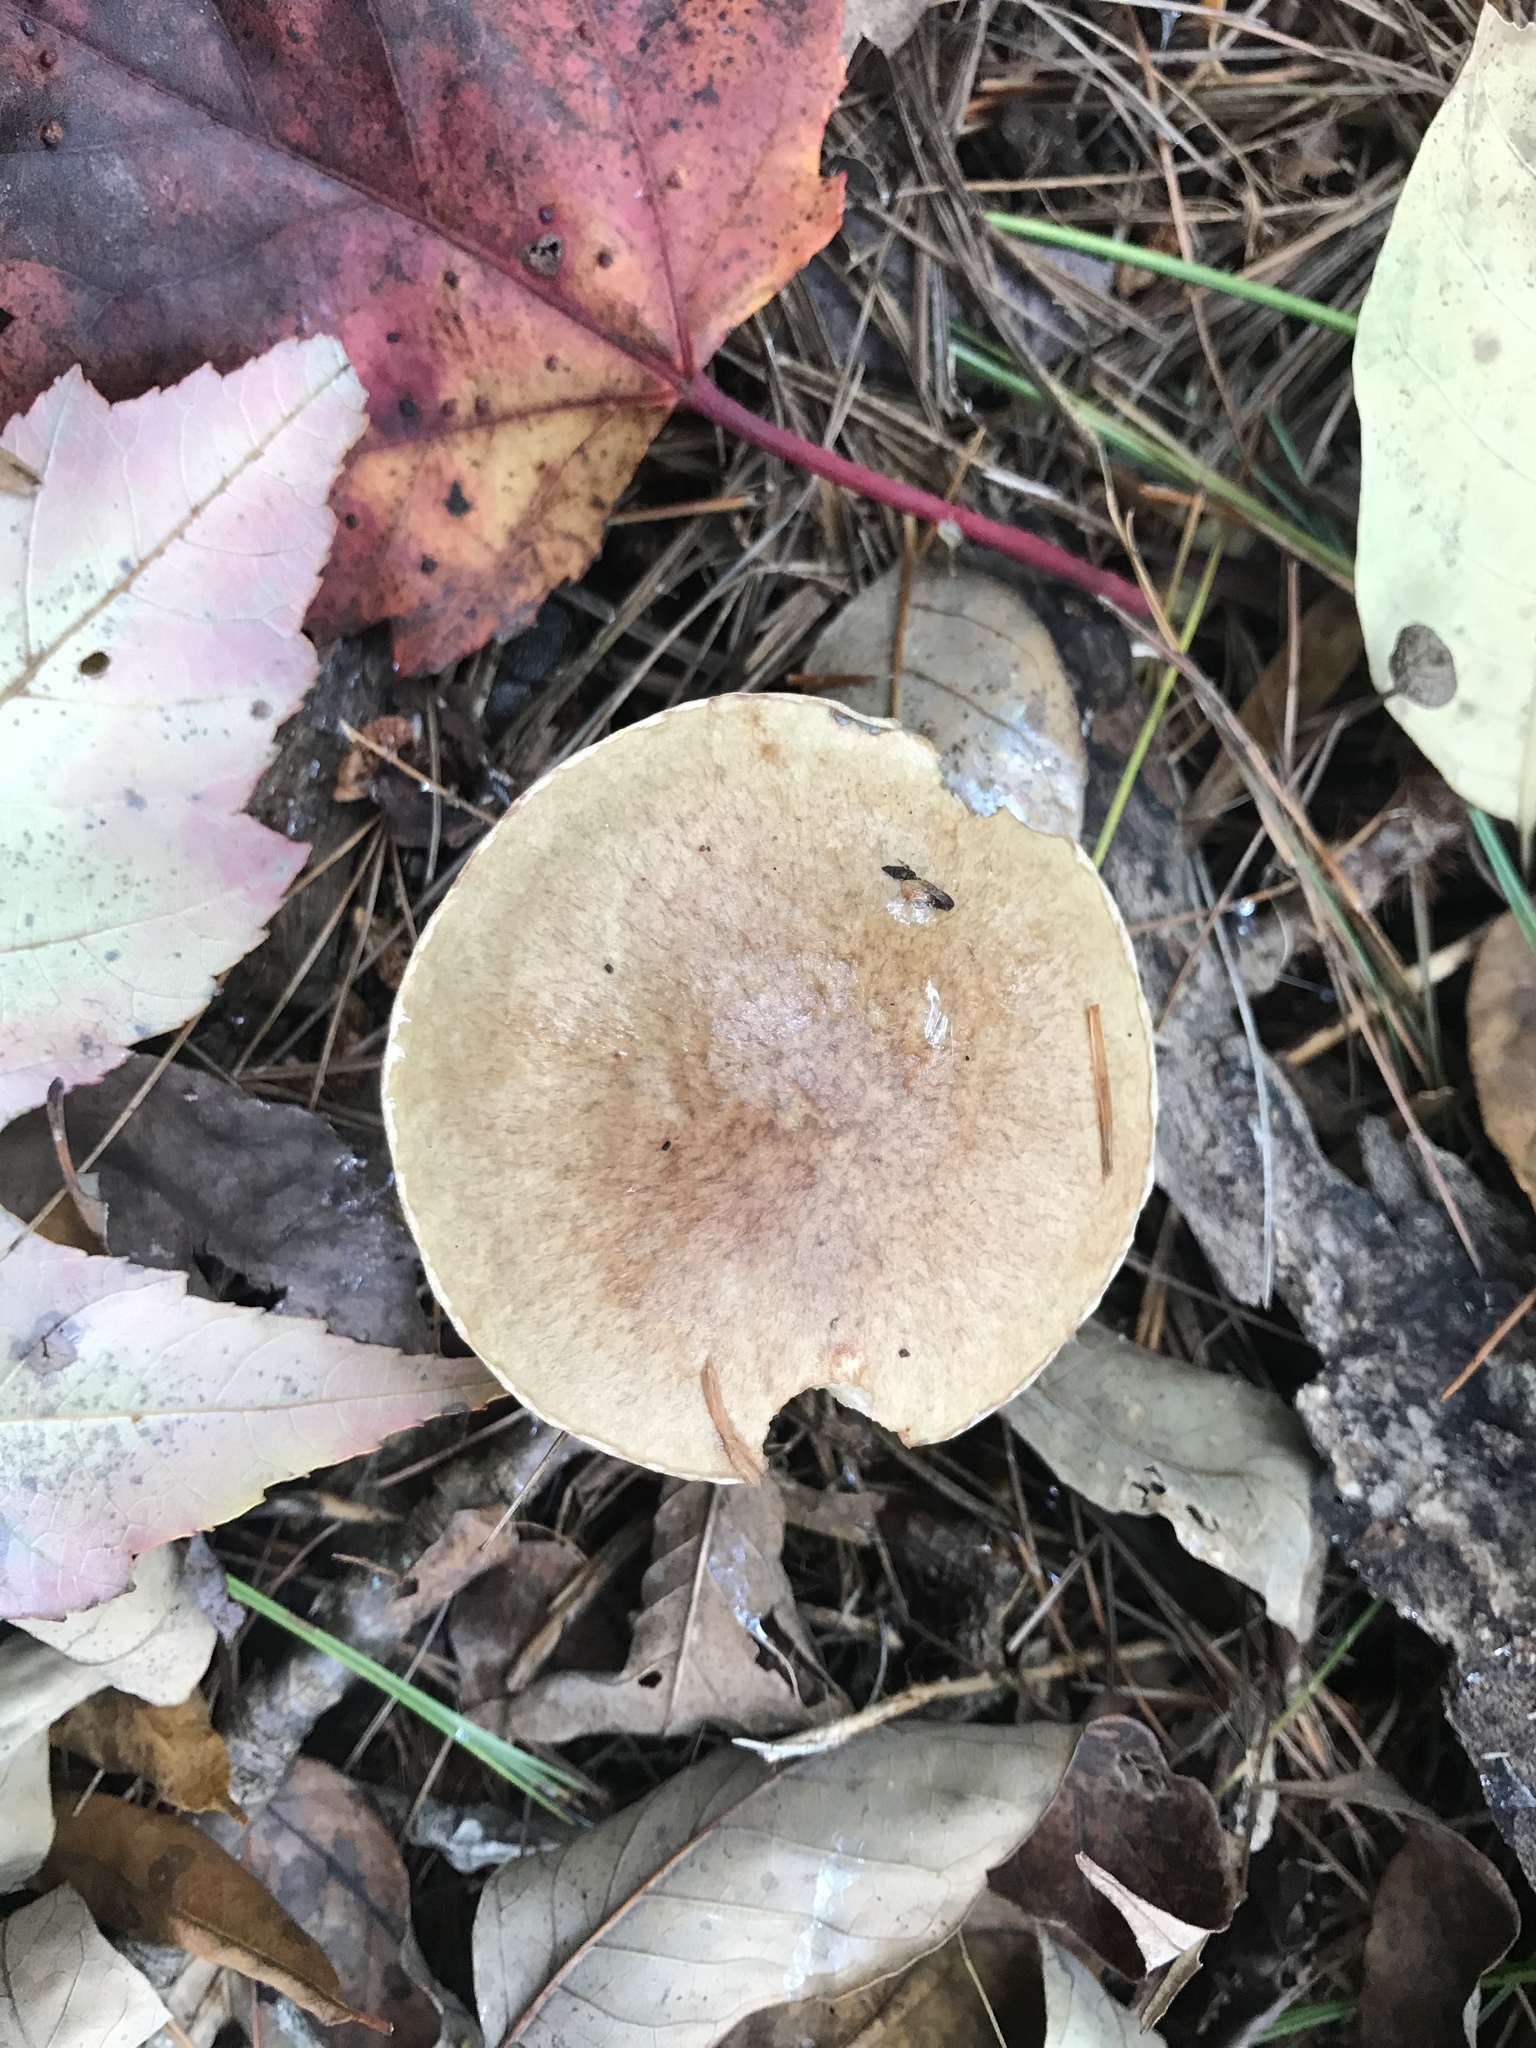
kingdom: Fungi
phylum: Basidiomycota
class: Agaricomycetes
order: Boletales
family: Suillaceae
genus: Suillus
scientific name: Suillus acidus
